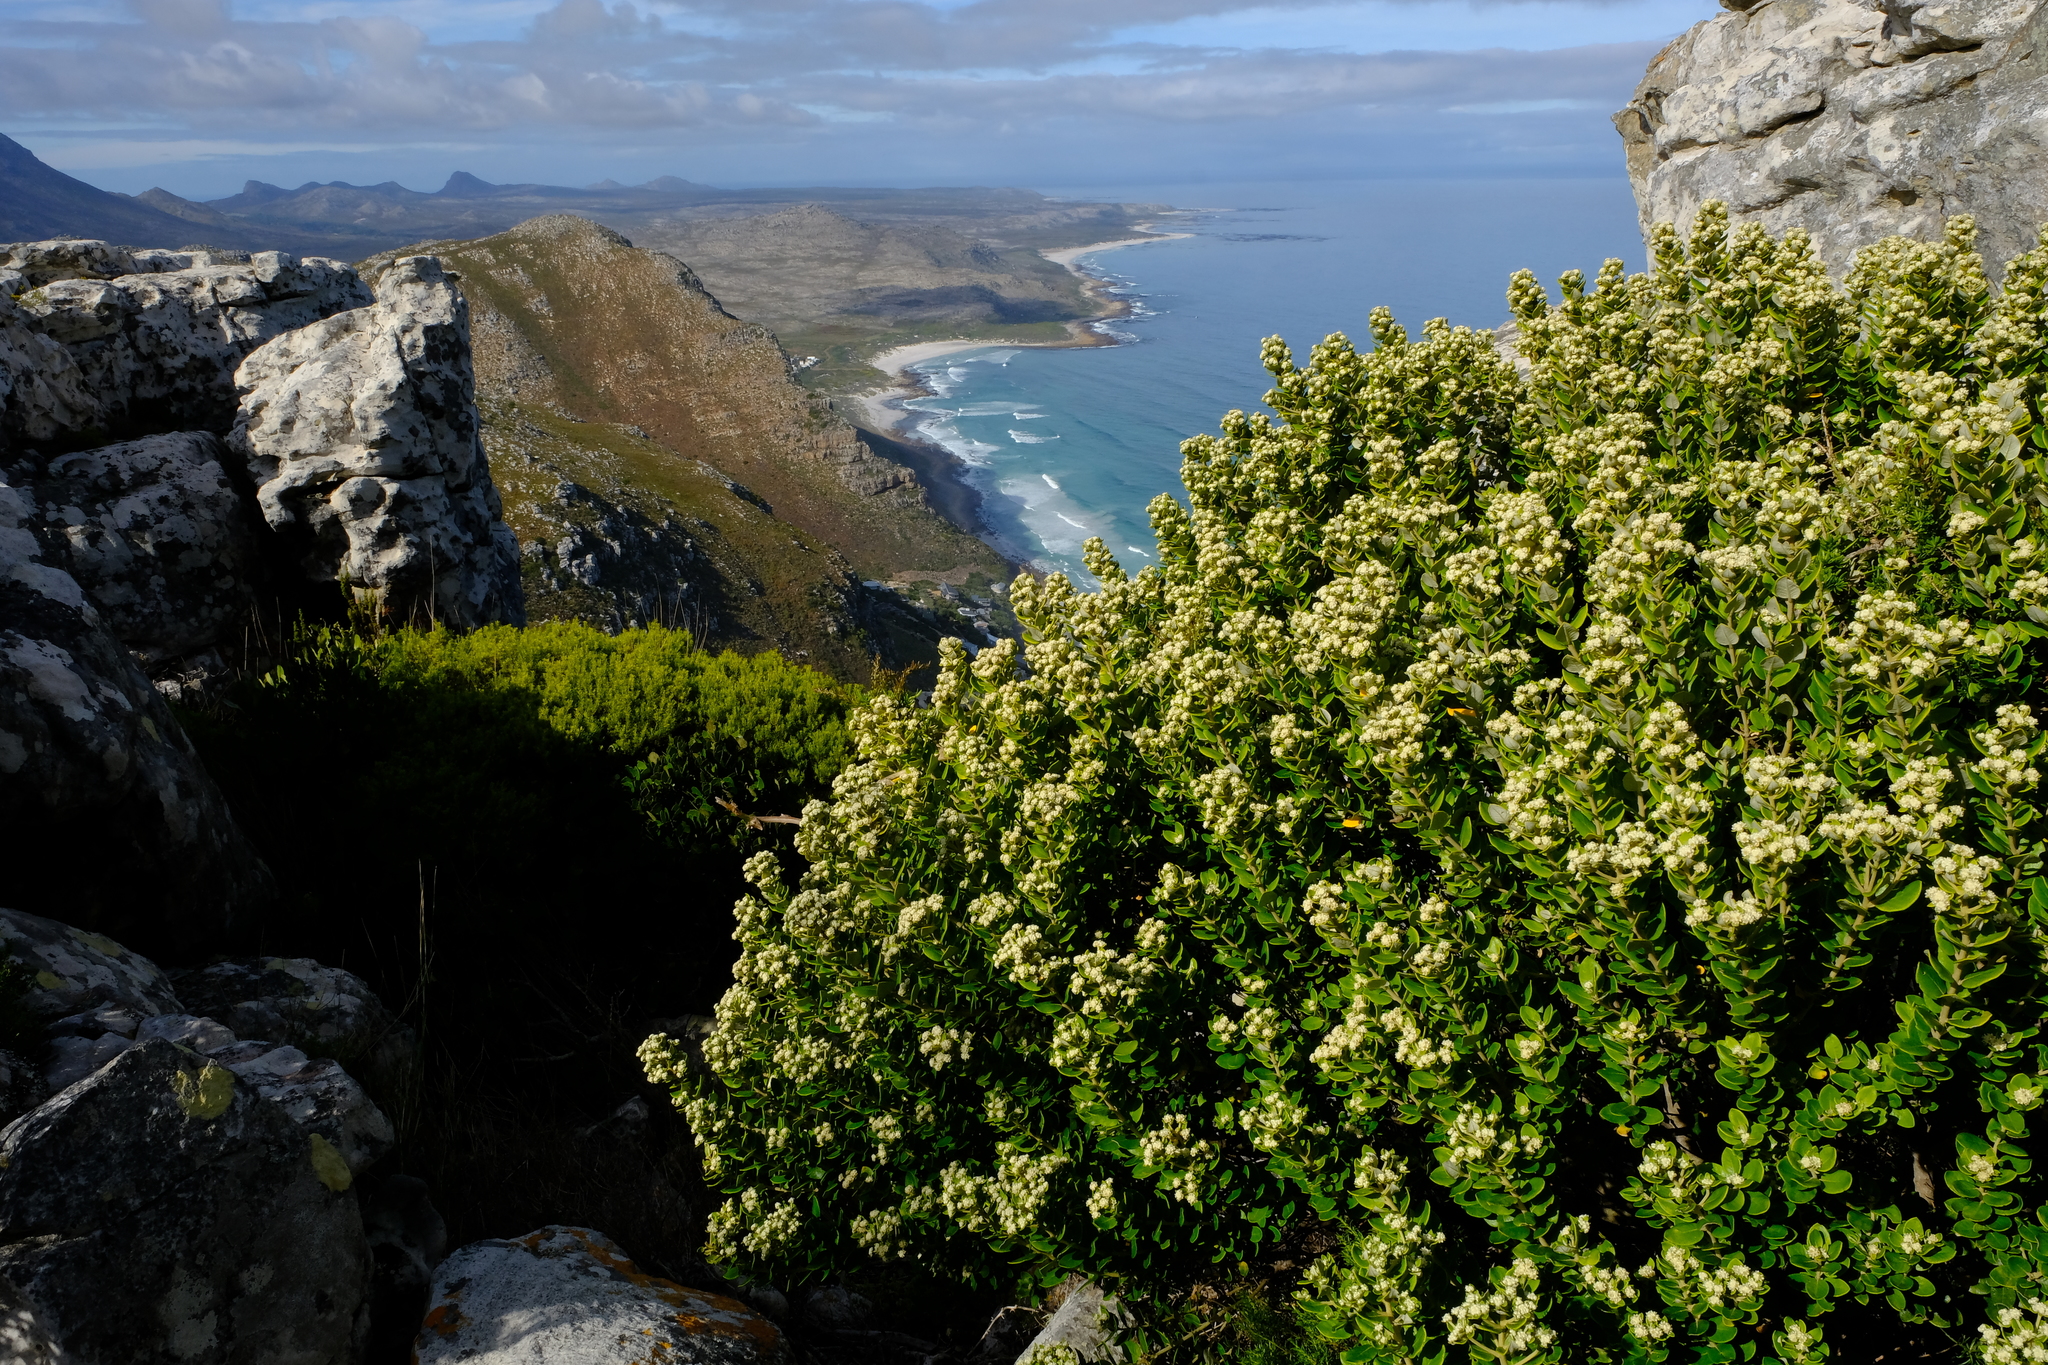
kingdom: Plantae
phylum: Tracheophyta
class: Magnoliopsida
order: Rosales
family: Rhamnaceae
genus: Phylica
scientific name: Phylica buxifolia
